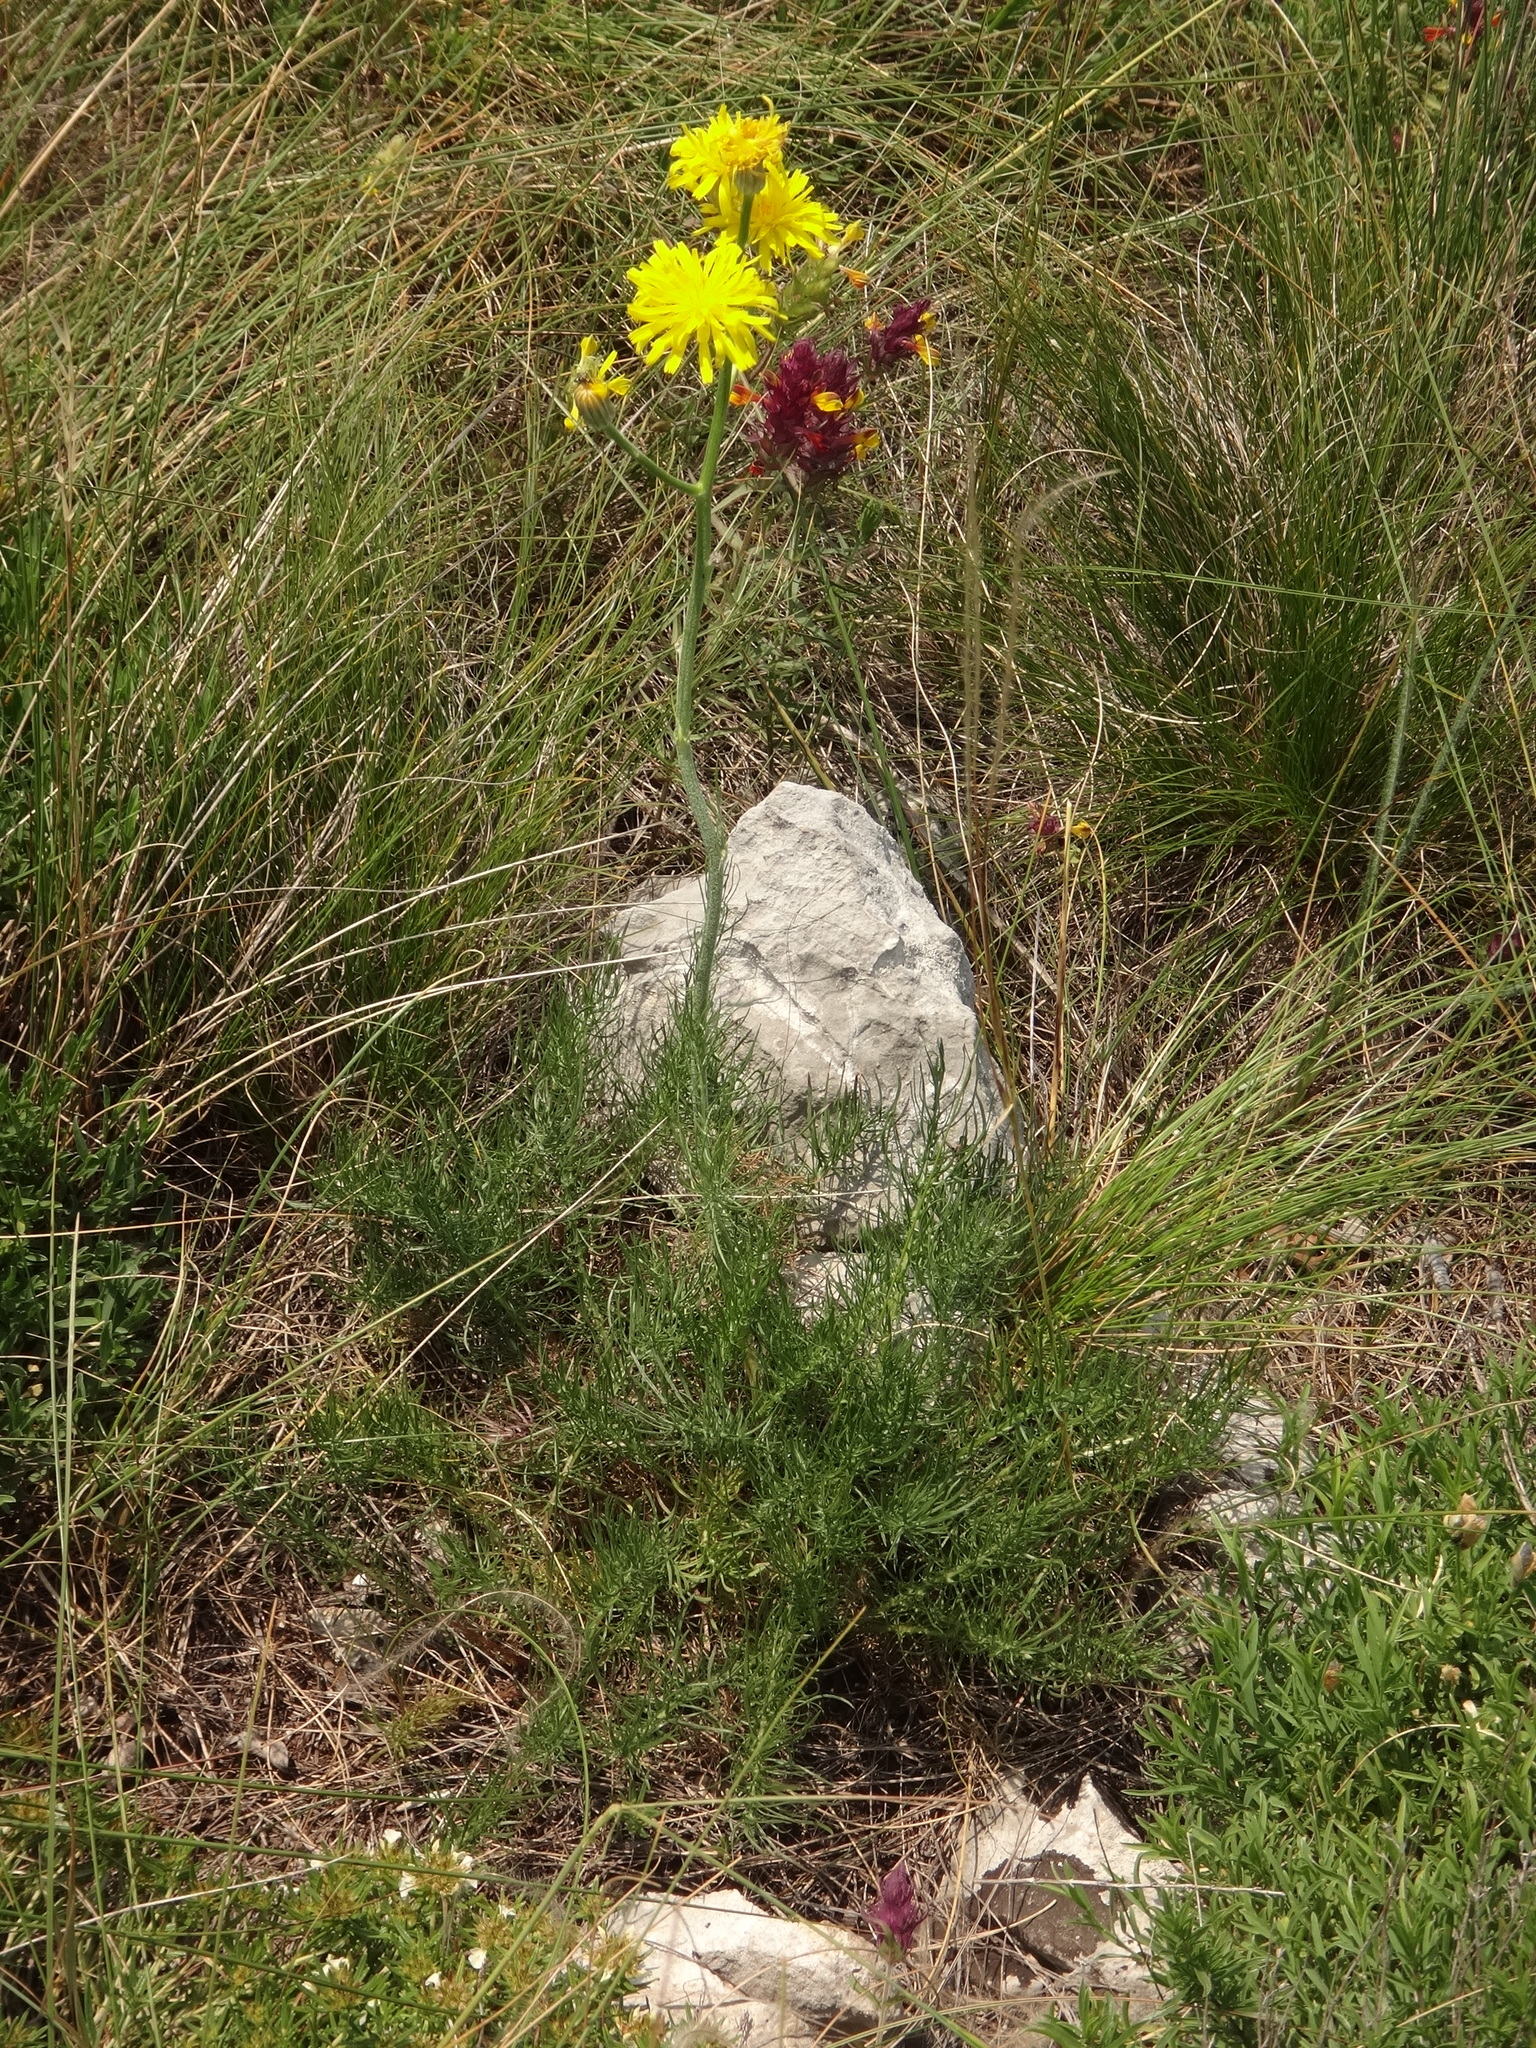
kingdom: Plantae
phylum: Tracheophyta
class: Magnoliopsida
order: Asterales
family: Asteraceae
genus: Crepis
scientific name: Crepis chondrilloides
